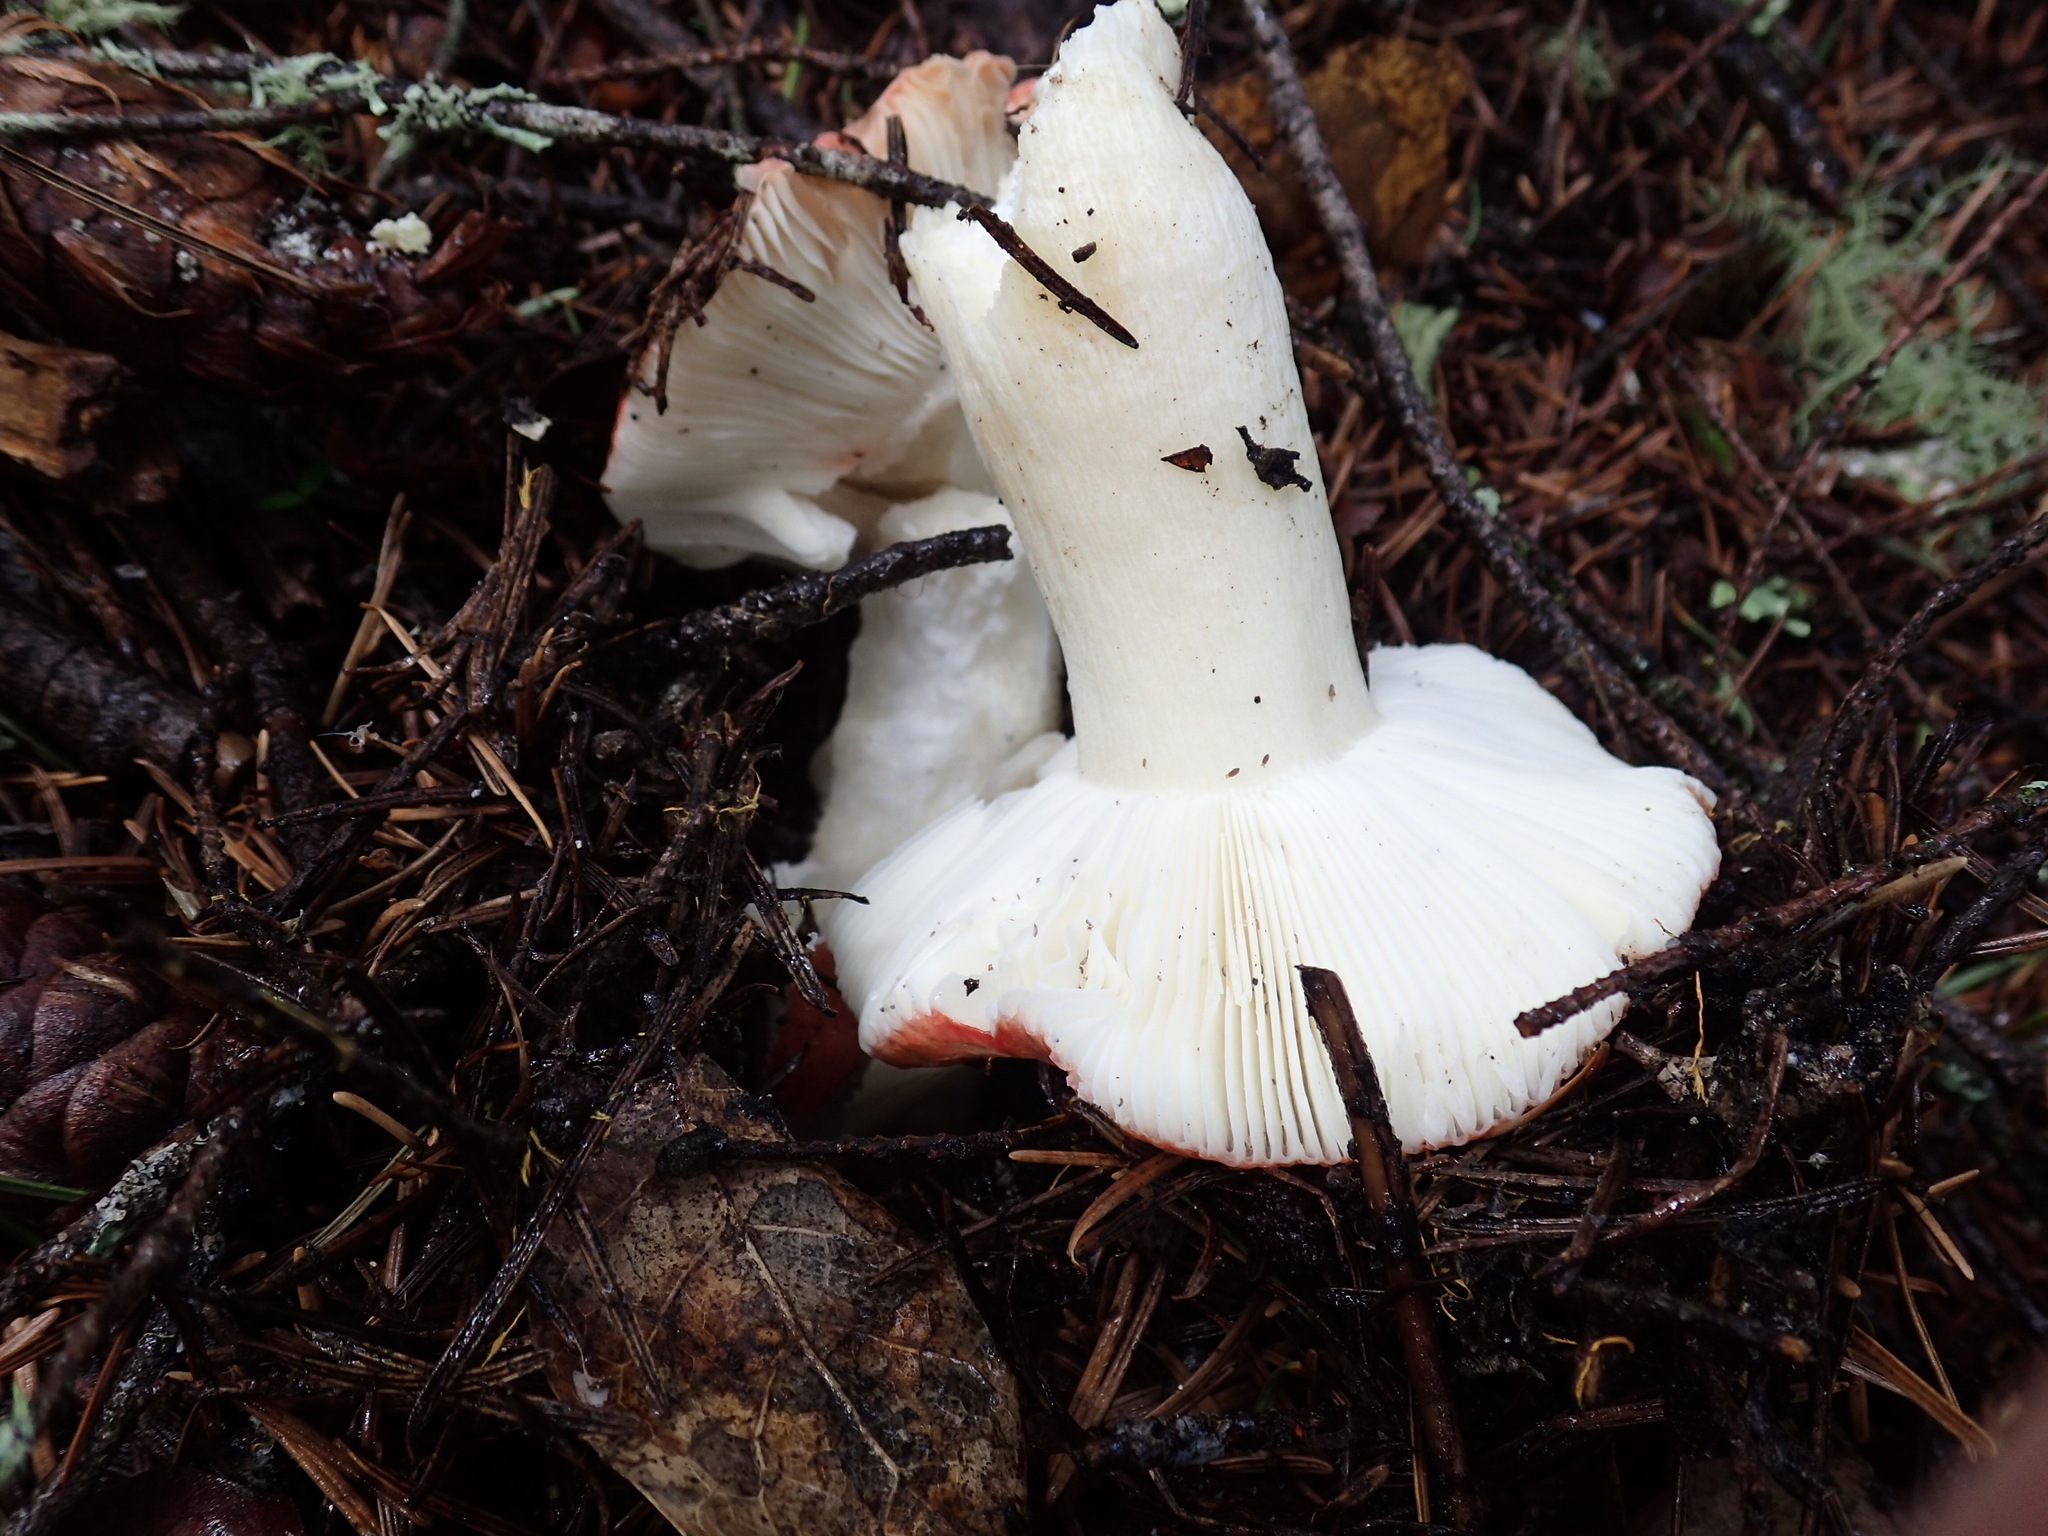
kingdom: Fungi
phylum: Basidiomycota
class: Agaricomycetes
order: Russulales
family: Russulaceae
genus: Russula
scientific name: Russula cremoricolor
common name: Winter russula
